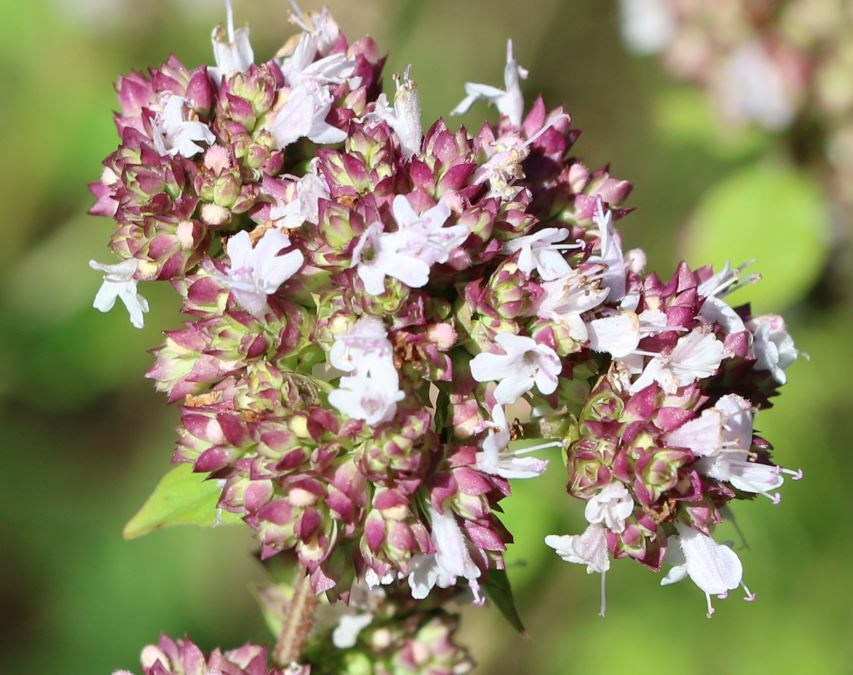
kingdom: Plantae
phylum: Tracheophyta
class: Magnoliopsida
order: Lamiales
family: Lamiaceae
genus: Origanum
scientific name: Origanum vulgare
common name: Wild marjoram
